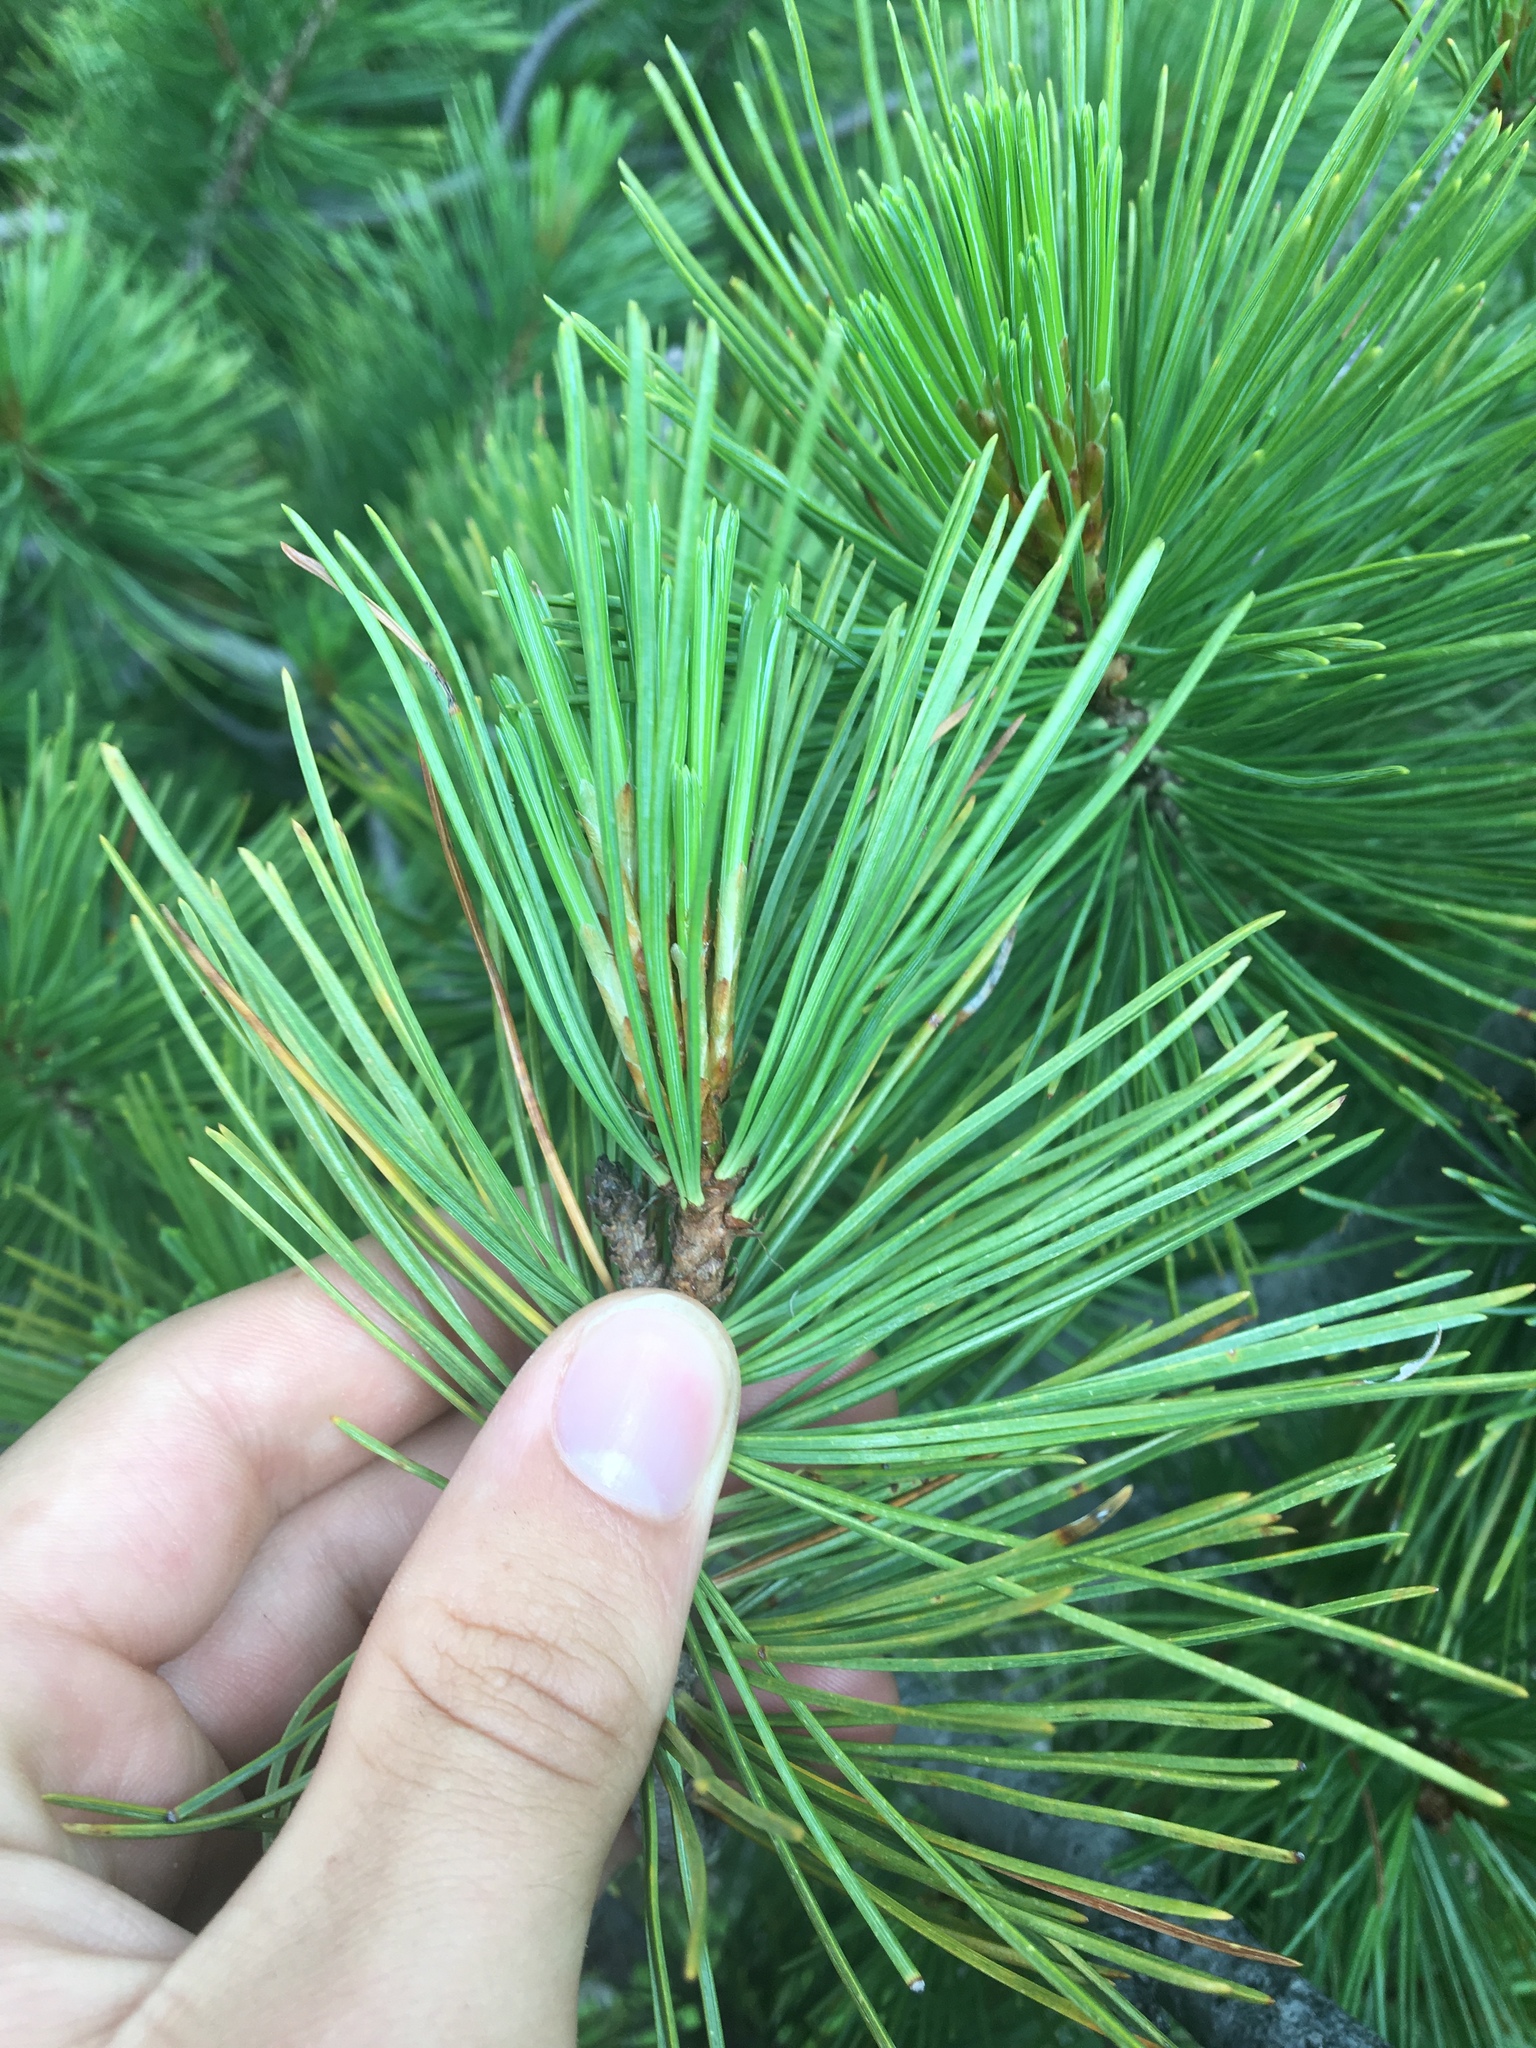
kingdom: Plantae
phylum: Tracheophyta
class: Pinopsida
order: Pinales
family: Pinaceae
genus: Pinus
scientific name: Pinus albicaulis
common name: Whitebark pine
